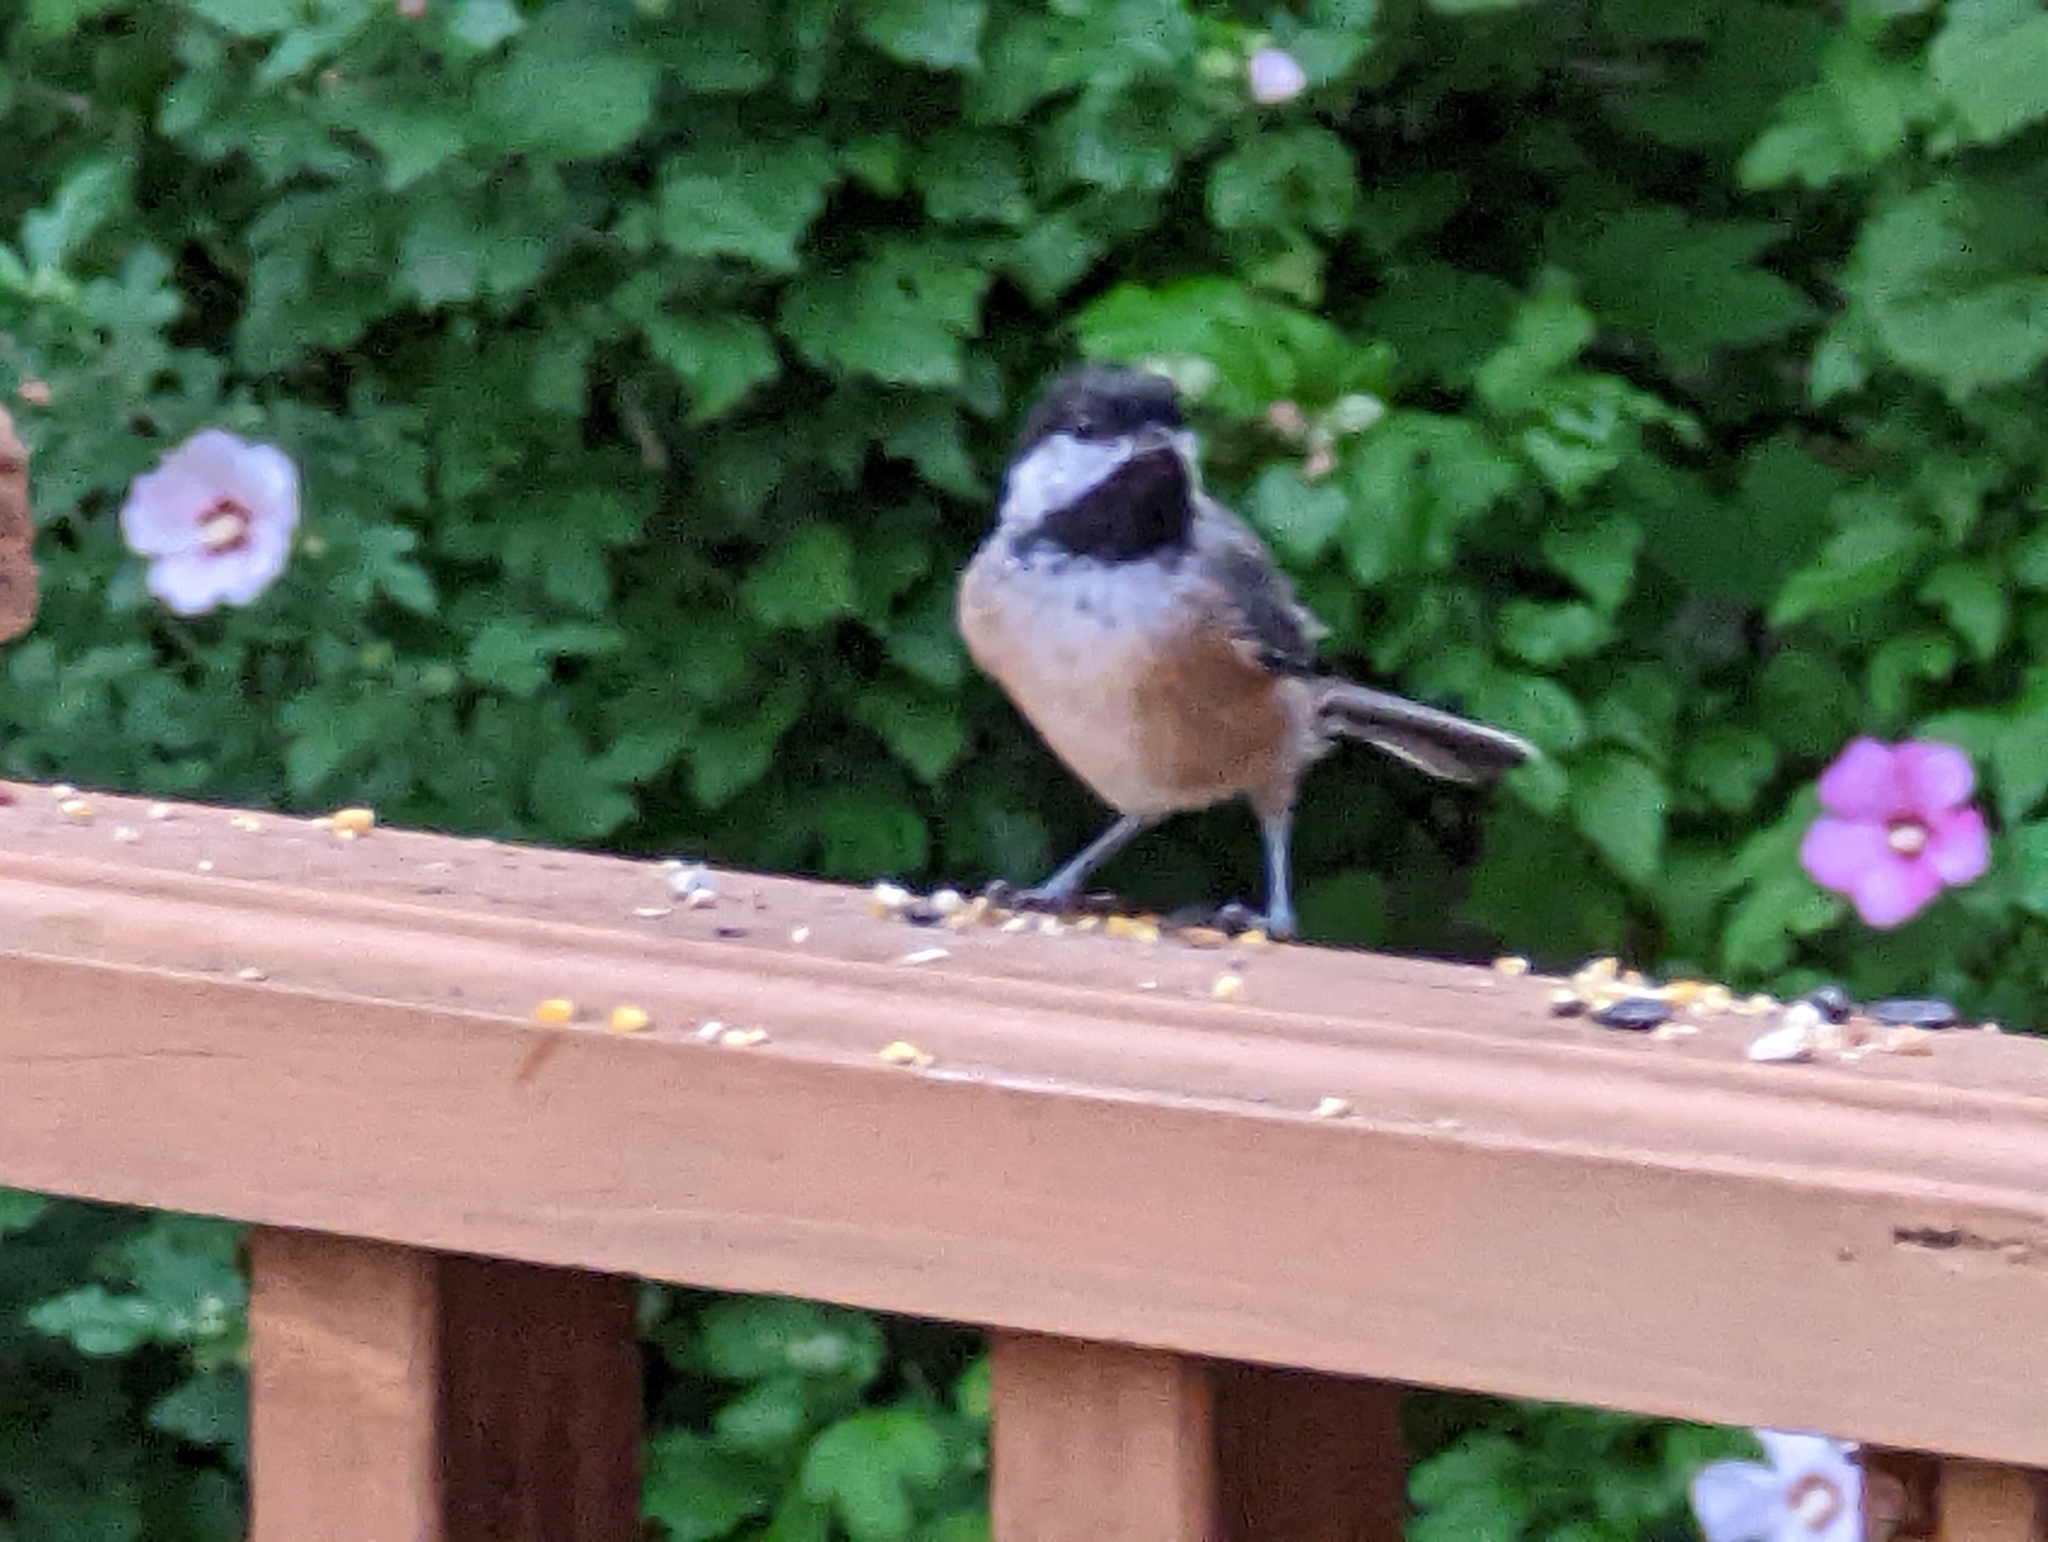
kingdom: Animalia
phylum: Chordata
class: Aves
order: Passeriformes
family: Paridae
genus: Poecile
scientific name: Poecile atricapillus
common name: Black-capped chickadee
